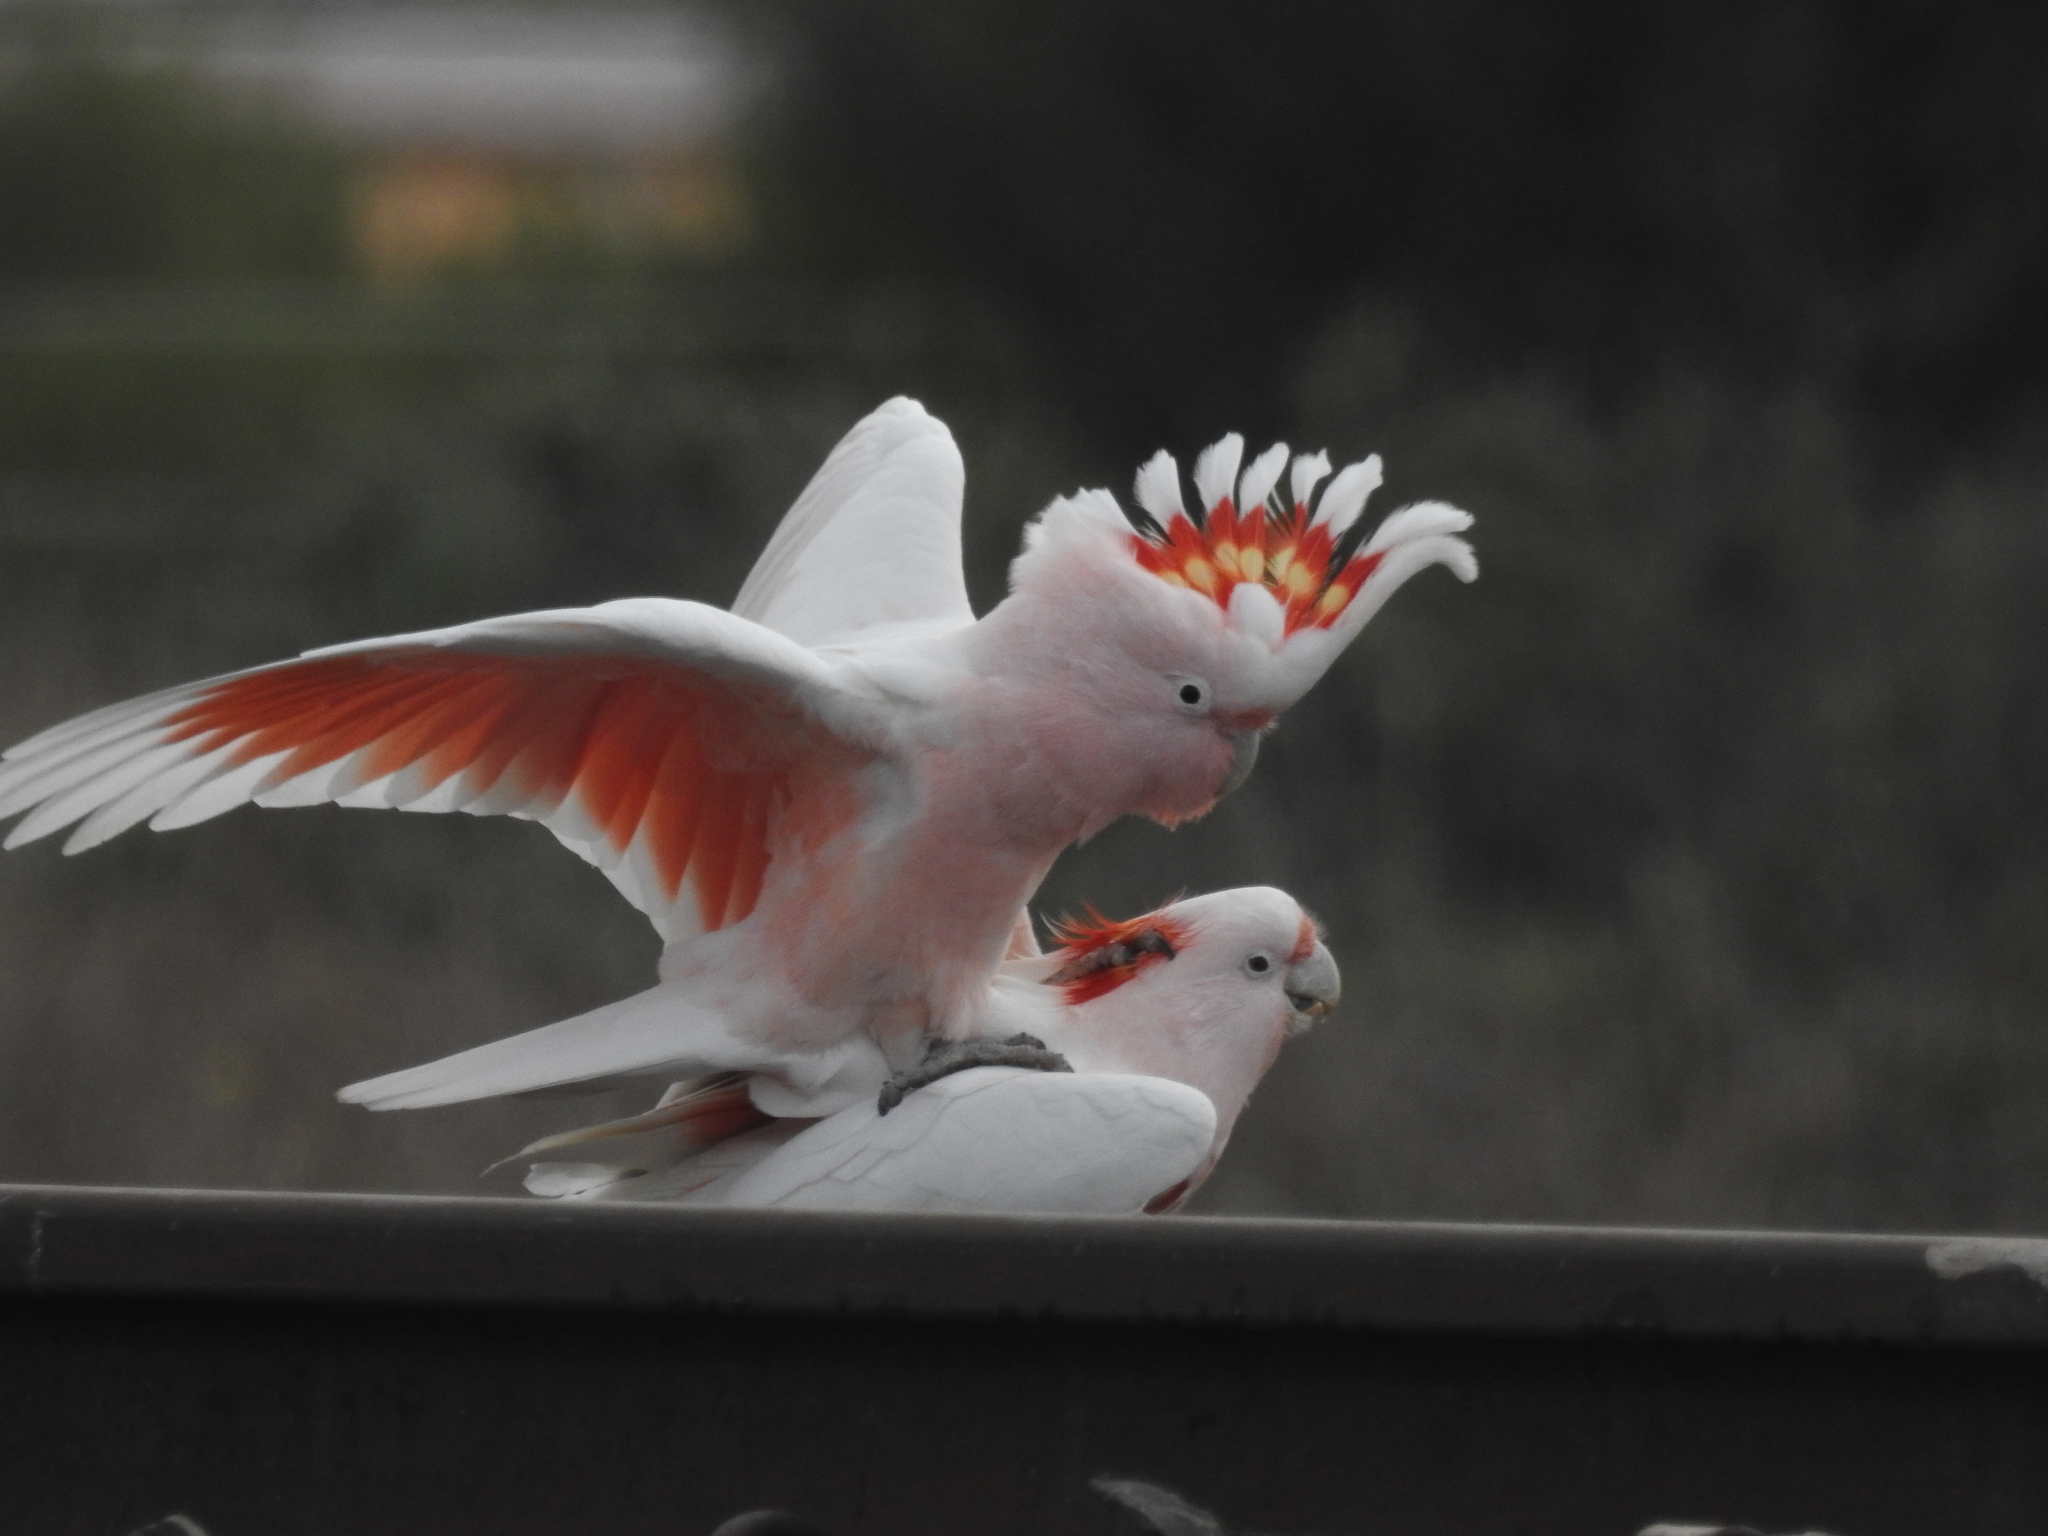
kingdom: Animalia
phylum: Chordata
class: Aves
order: Psittaciformes
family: Psittacidae
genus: Cacatua
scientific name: Cacatua leadbeateri
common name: Major mitchell's cockatoo
